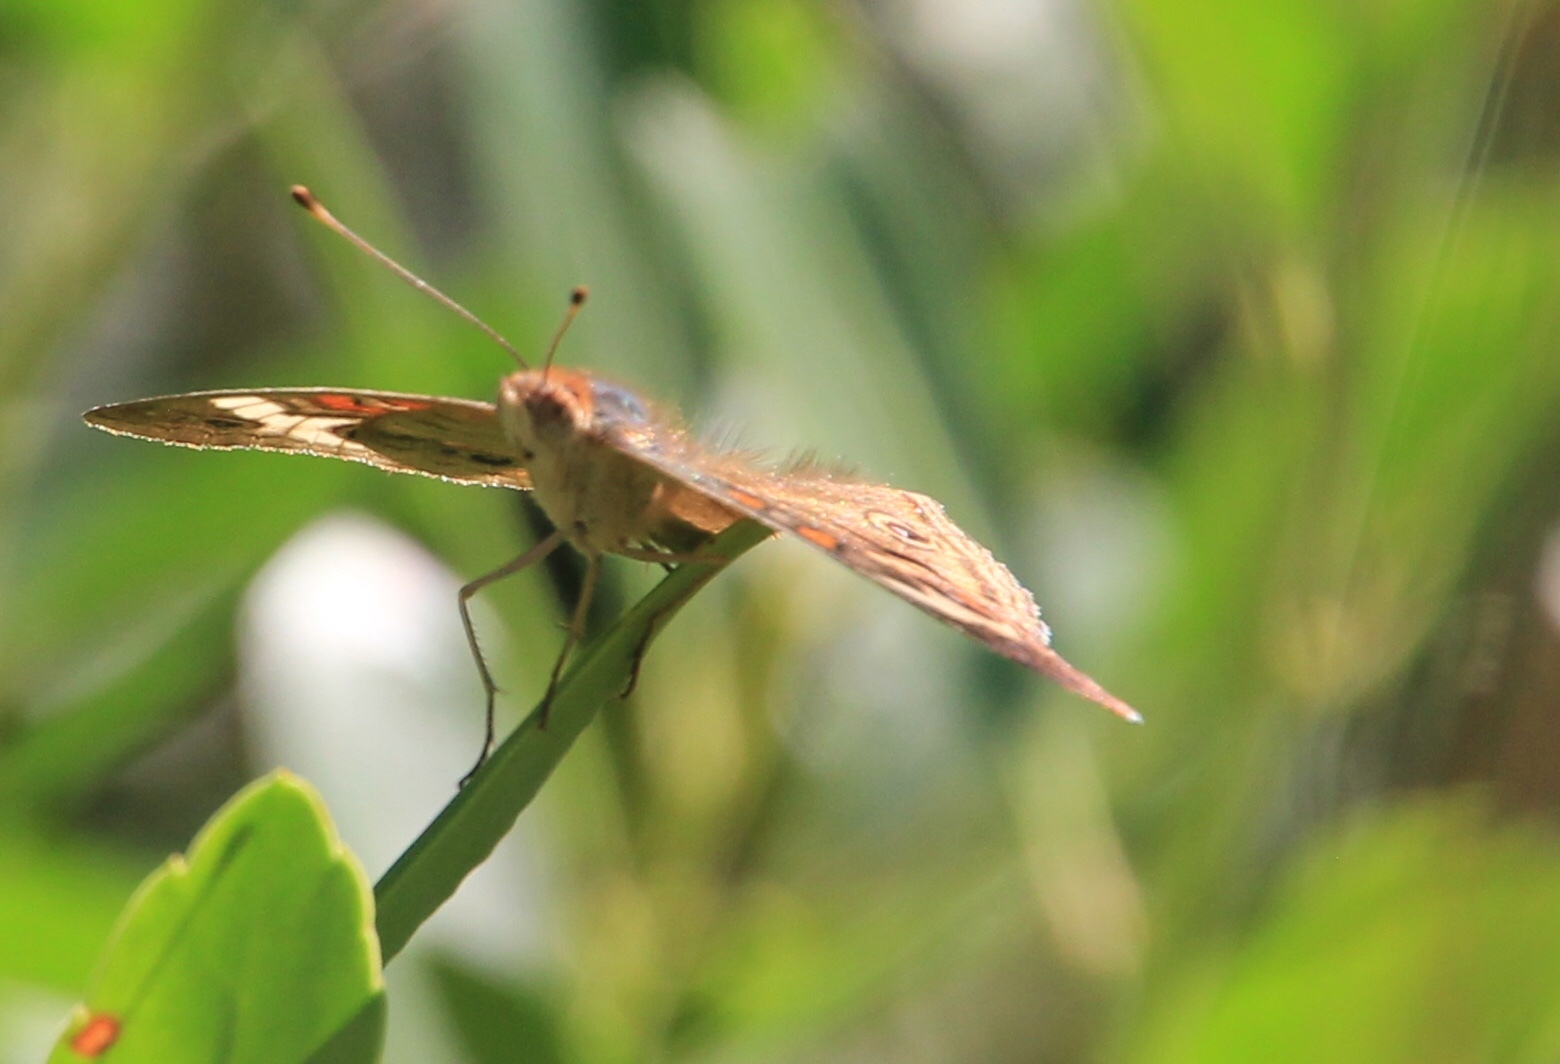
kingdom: Animalia
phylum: Arthropoda
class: Insecta
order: Lepidoptera
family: Nymphalidae
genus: Junonia
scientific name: Junonia coenia
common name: Common buckeye
